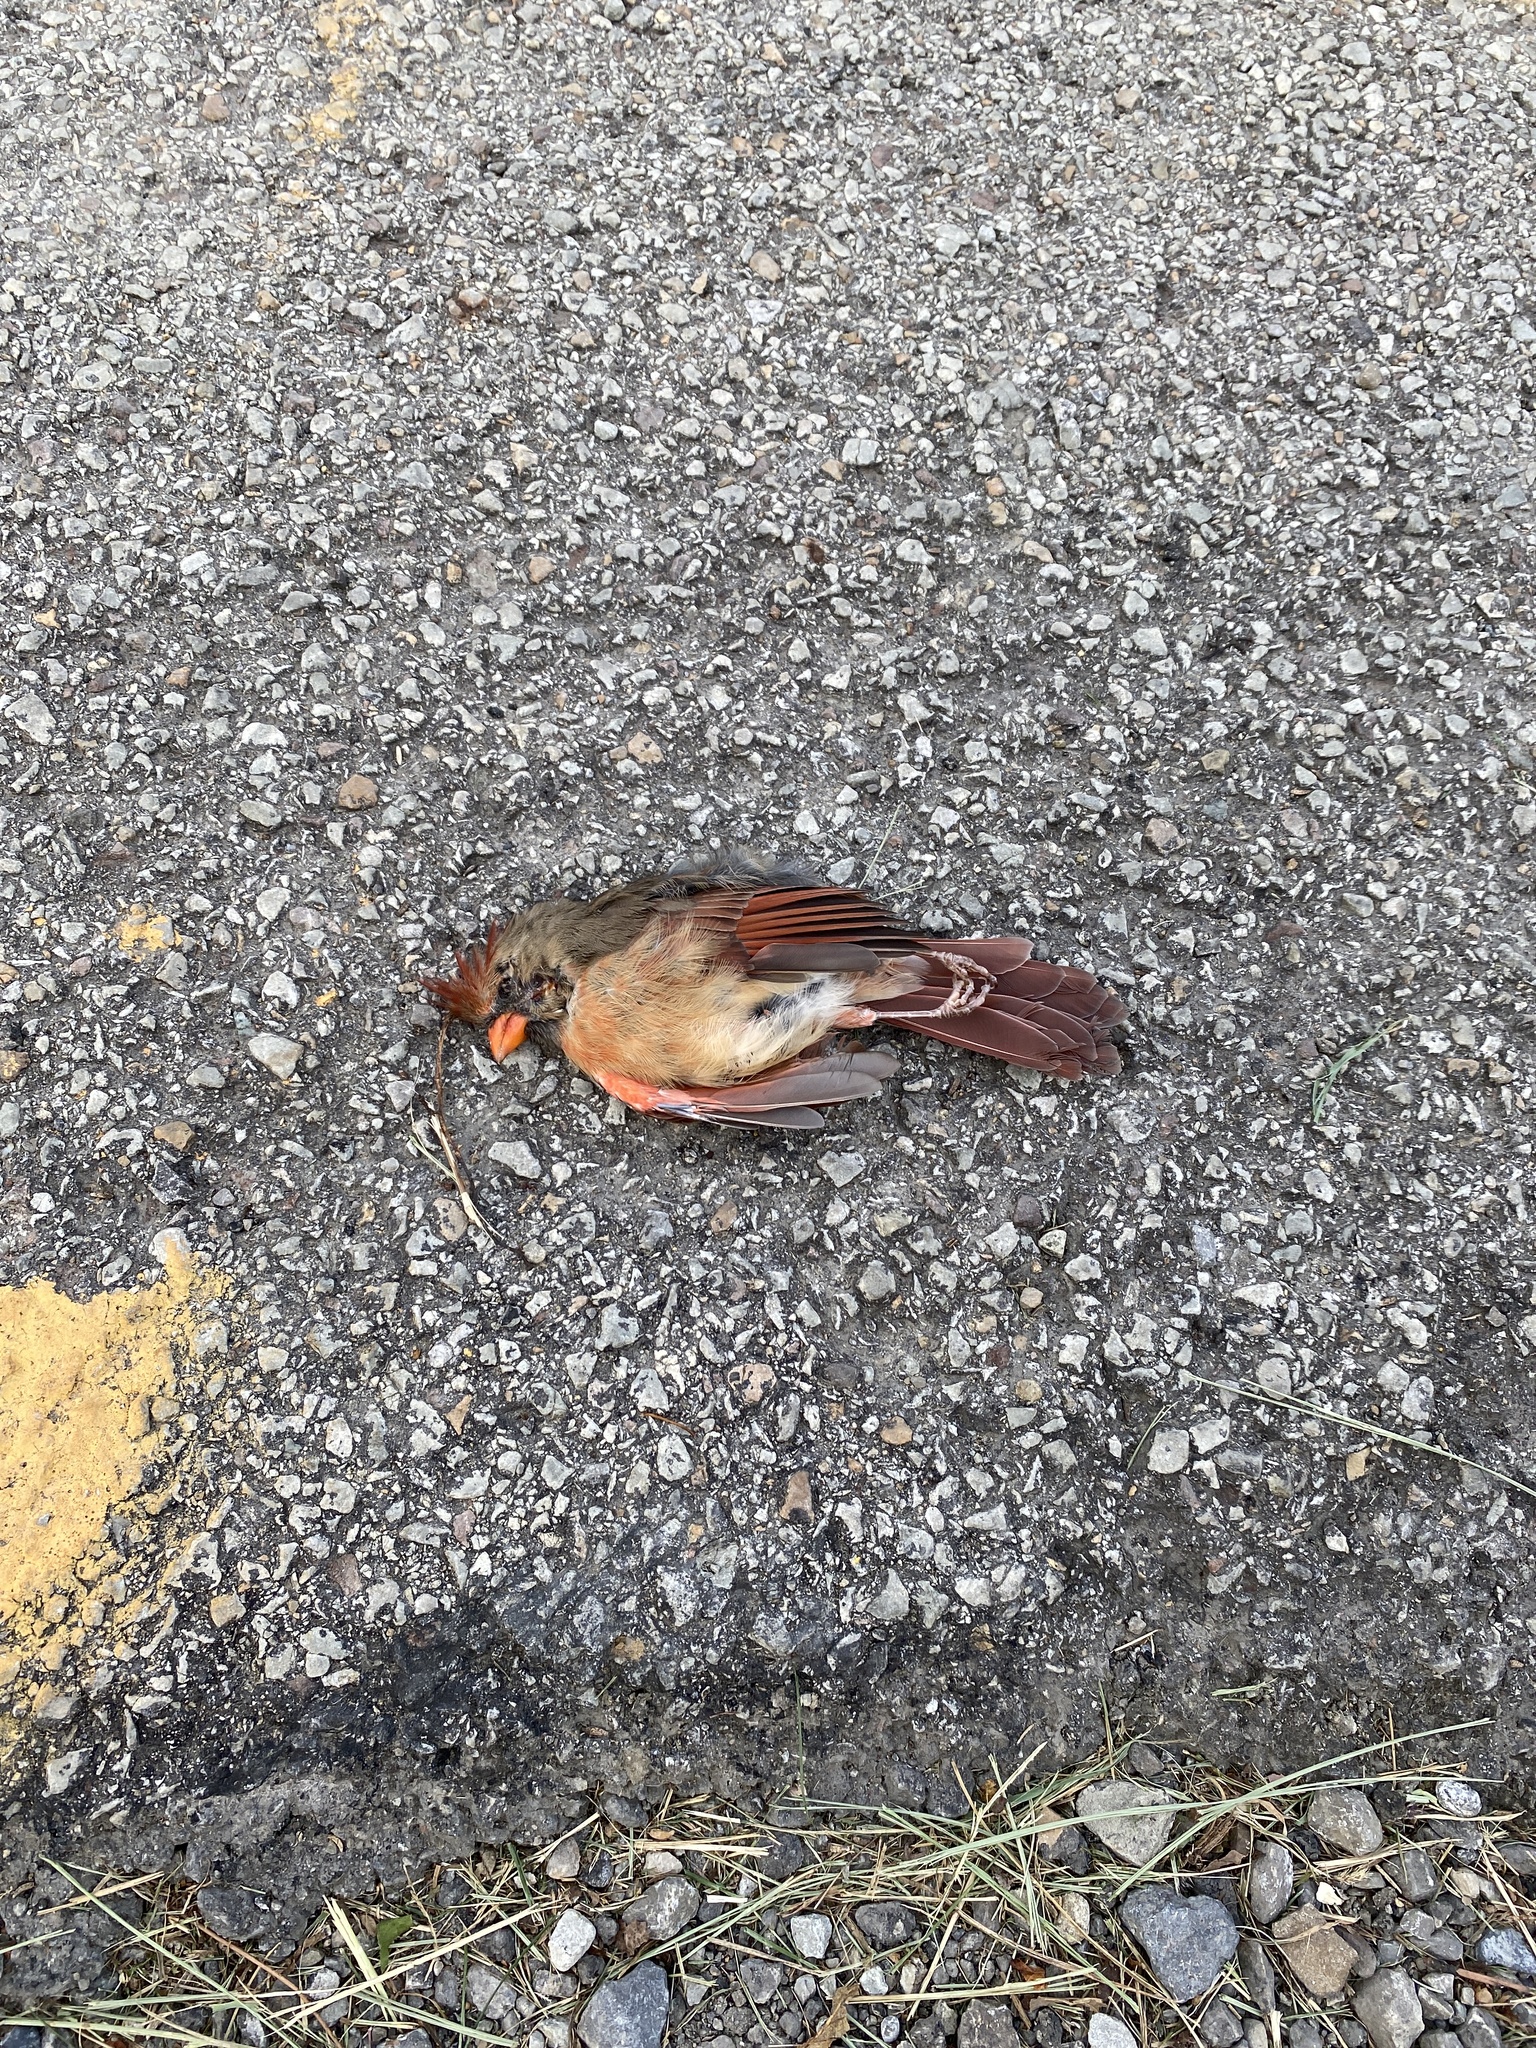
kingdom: Animalia
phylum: Chordata
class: Aves
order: Passeriformes
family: Cardinalidae
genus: Cardinalis
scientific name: Cardinalis cardinalis
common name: Northern cardinal
